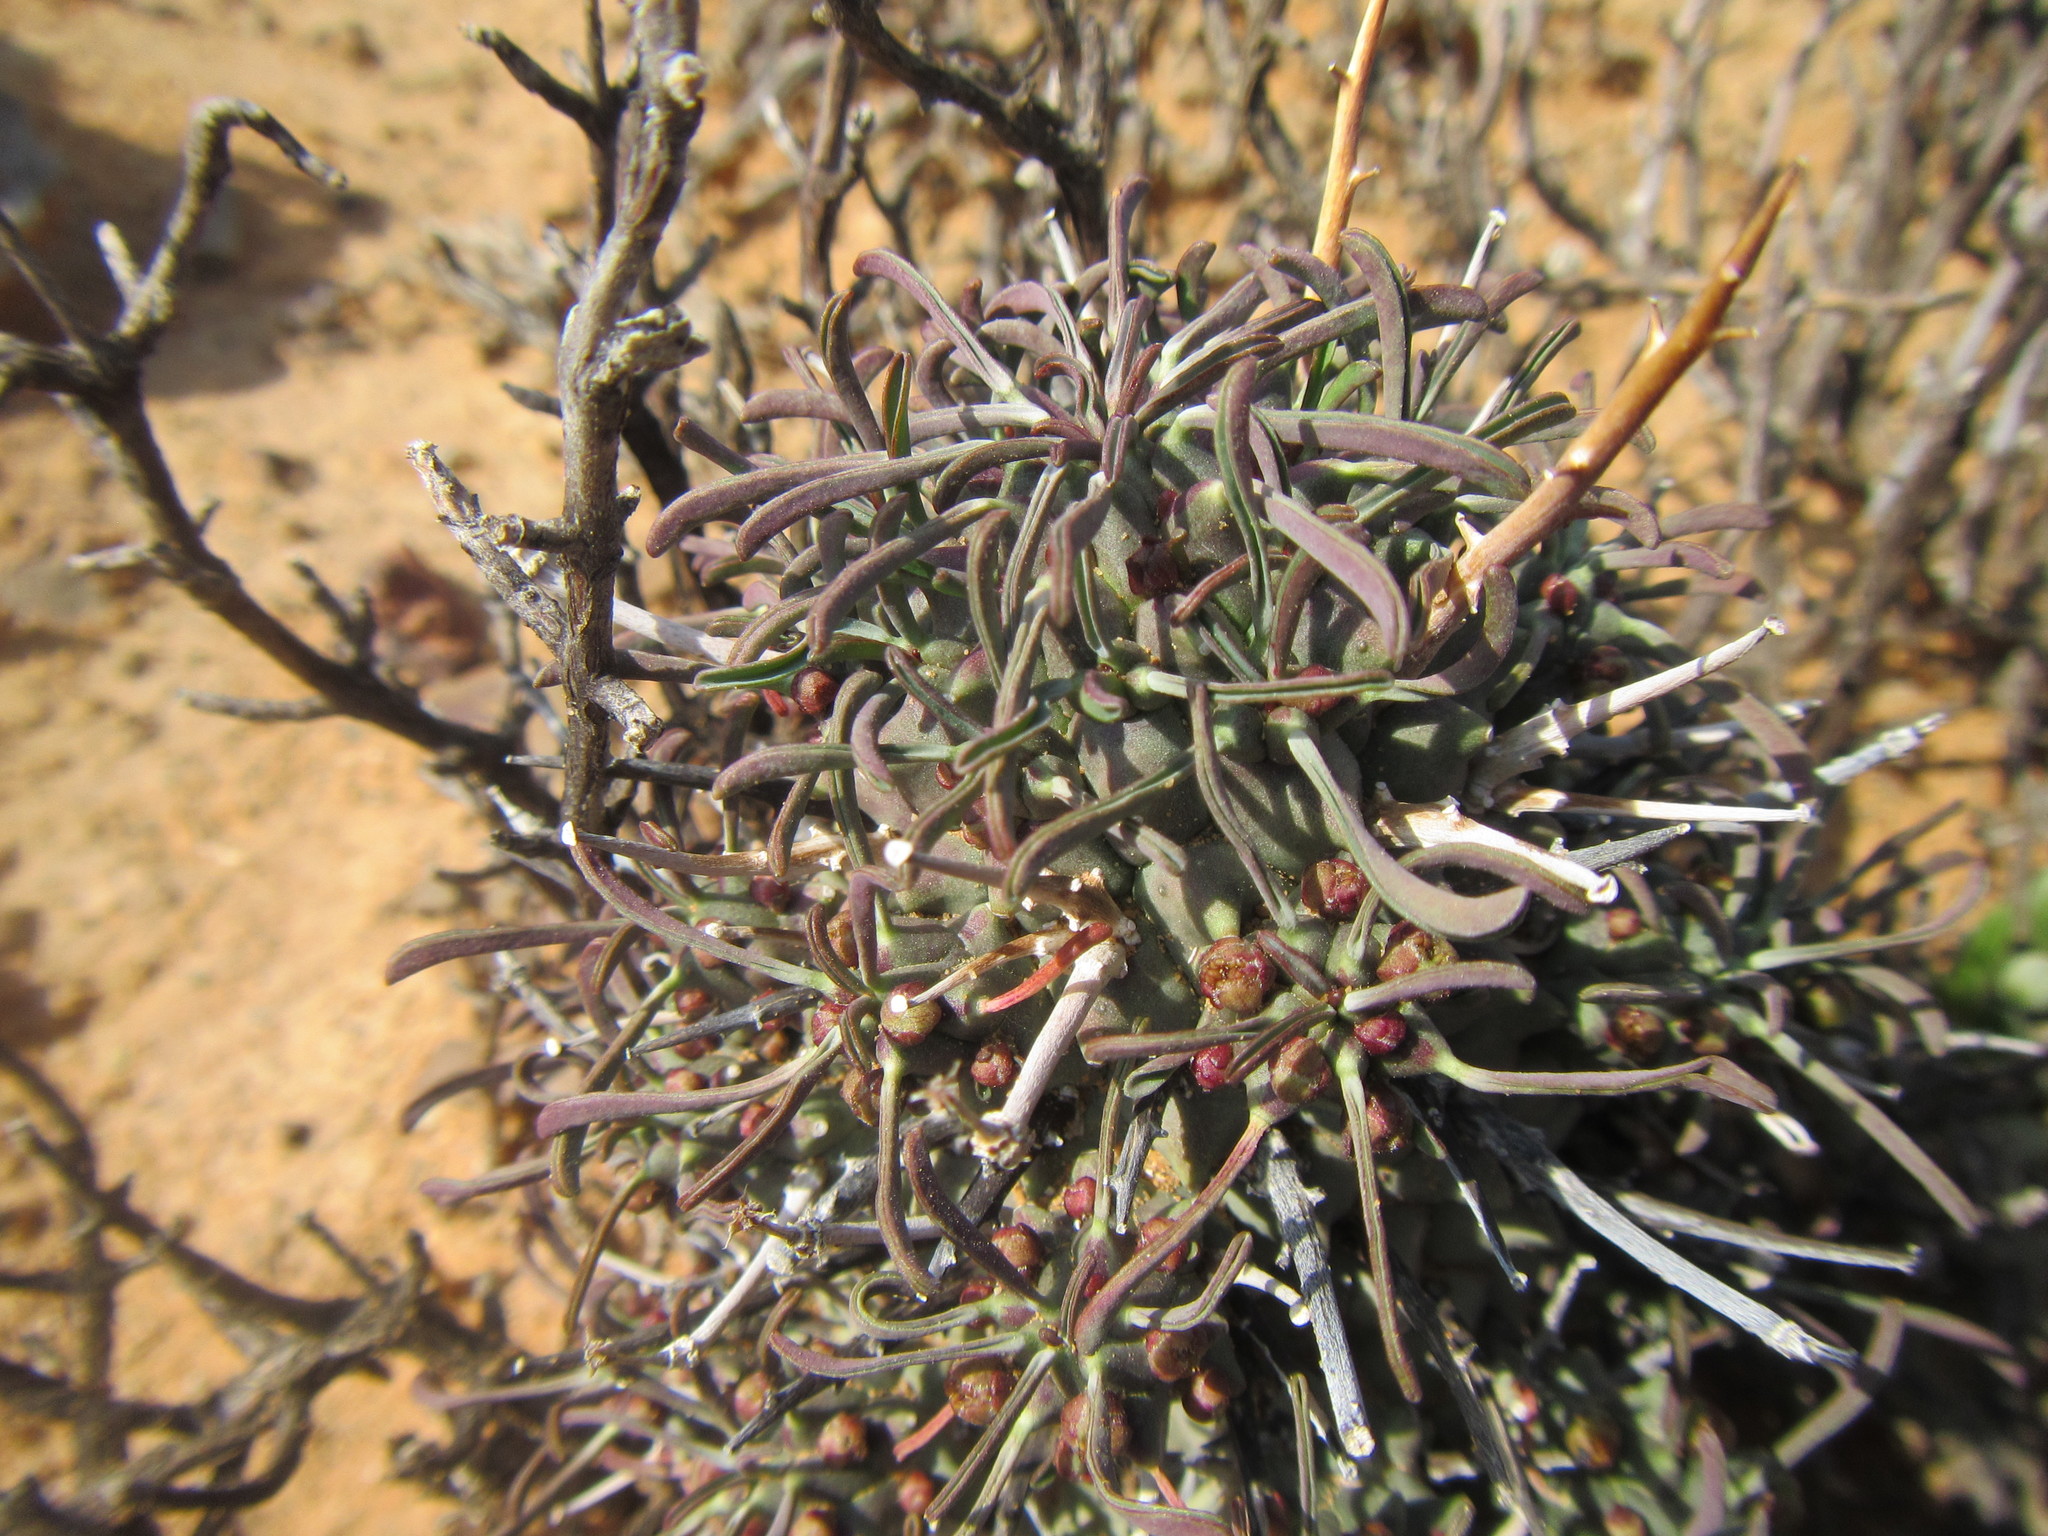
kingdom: Plantae
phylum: Tracheophyta
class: Magnoliopsida
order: Malpighiales
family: Euphorbiaceae
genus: Euphorbia
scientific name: Euphorbia multiceps
